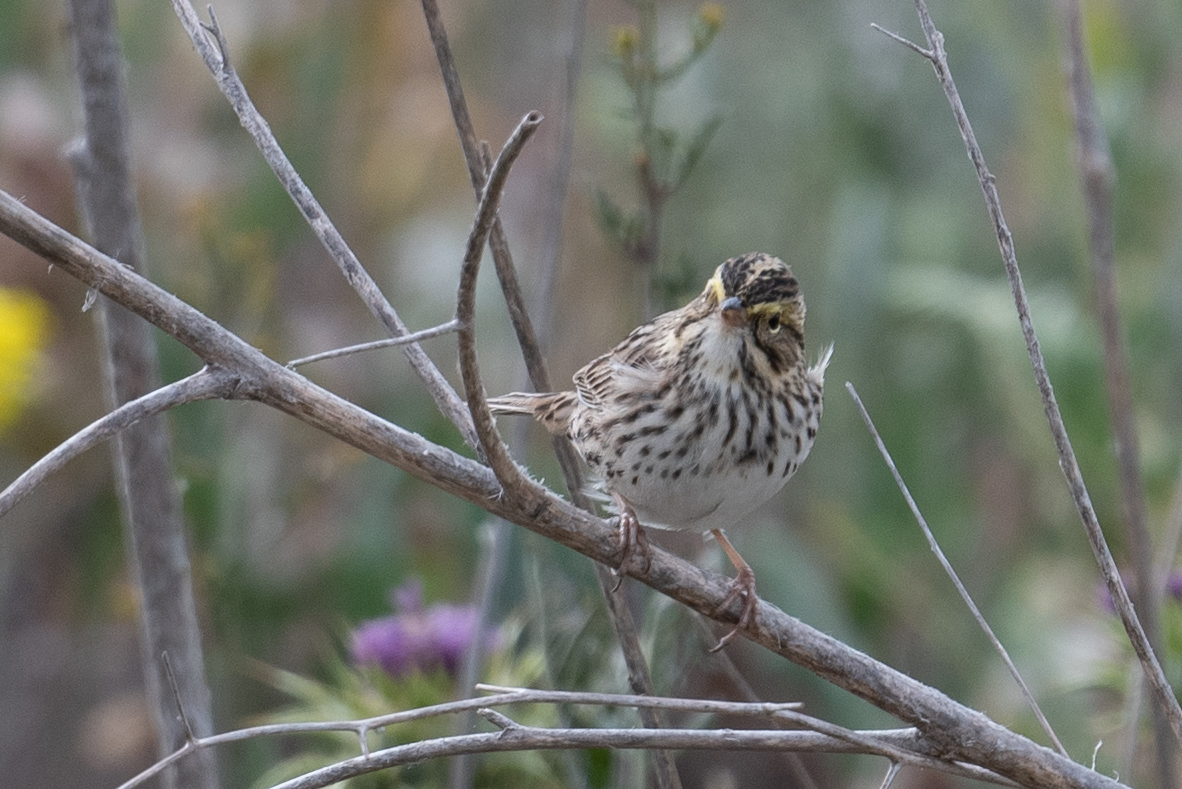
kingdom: Animalia
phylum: Chordata
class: Aves
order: Passeriformes
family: Passerellidae
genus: Passerculus
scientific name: Passerculus sandwichensis
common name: Savannah sparrow
